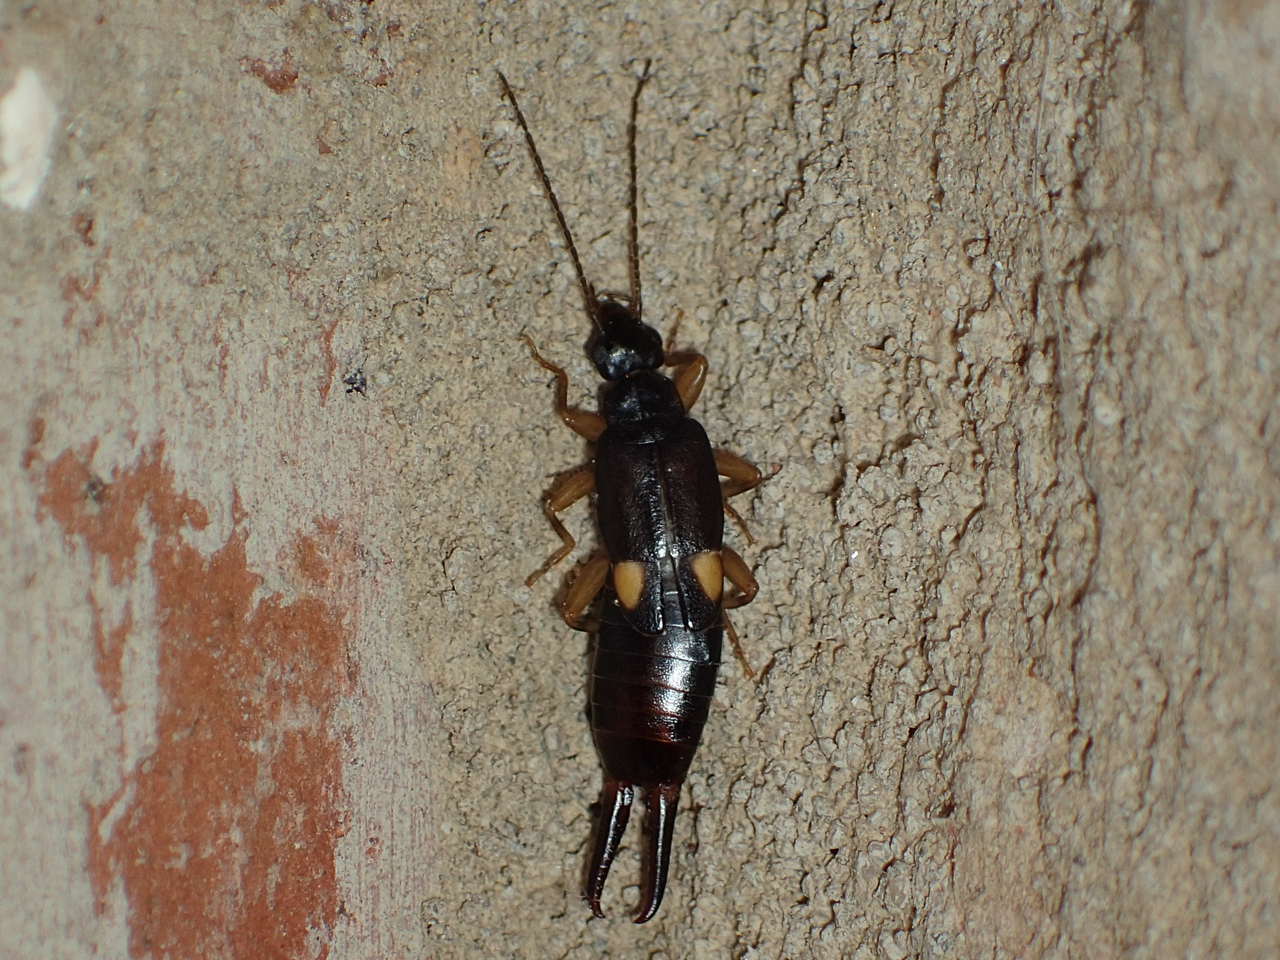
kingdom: Animalia
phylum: Arthropoda
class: Insecta
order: Dermaptera
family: Spongiphoridae
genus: Vostox
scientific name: Vostox brunneipennis
